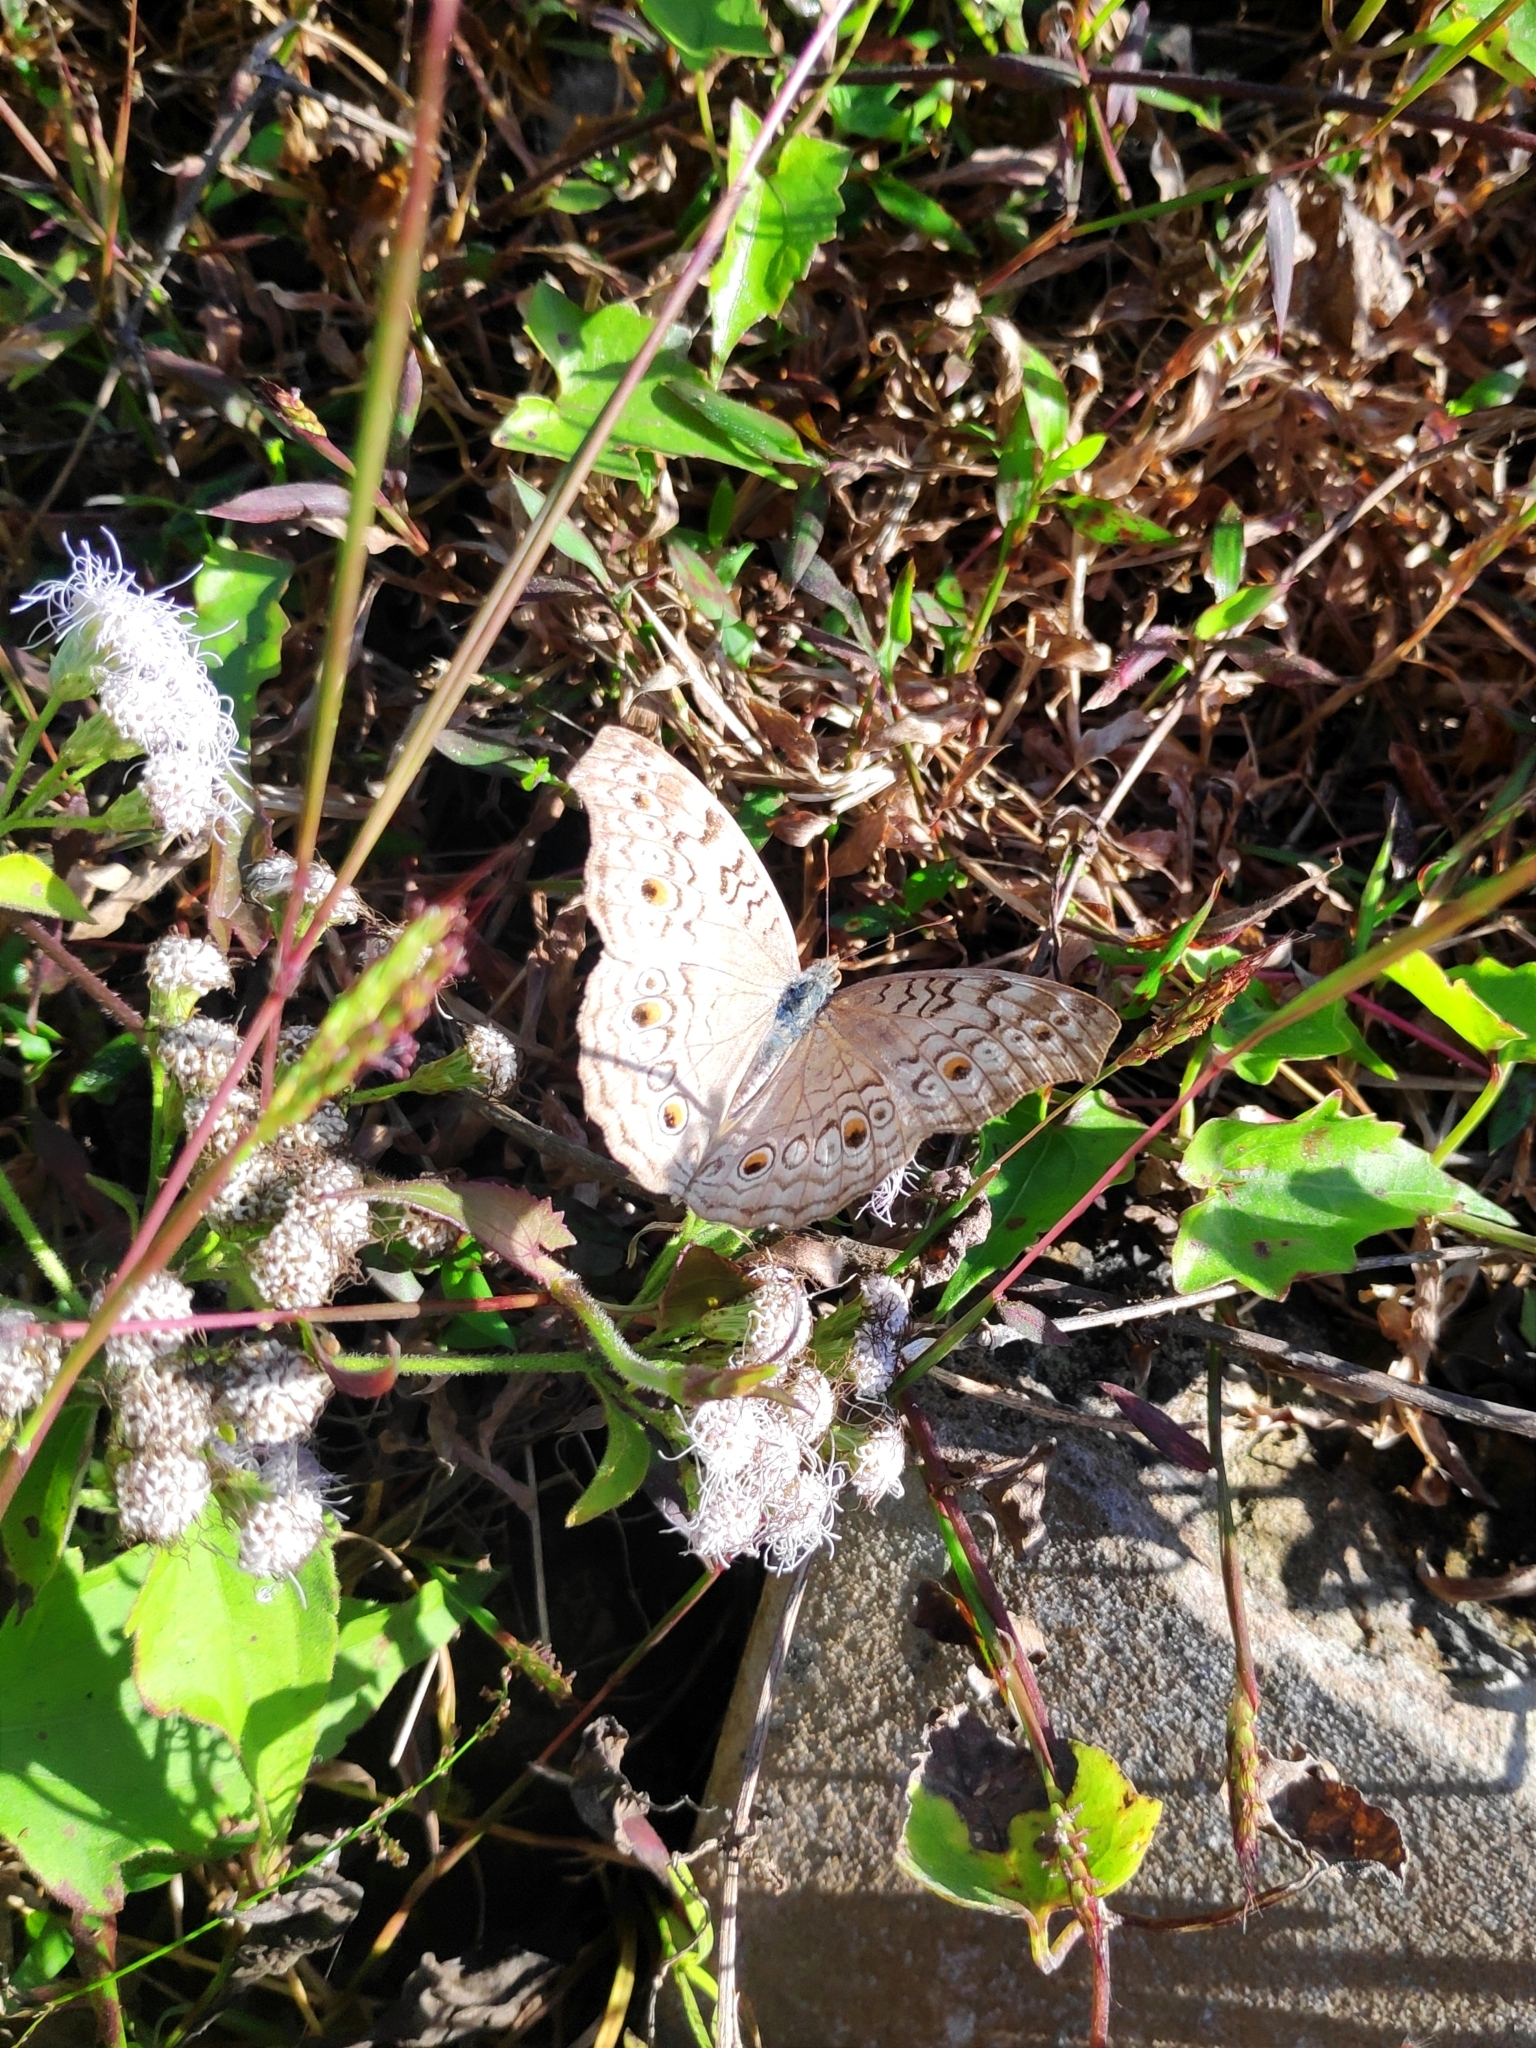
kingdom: Animalia
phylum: Arthropoda
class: Insecta
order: Lepidoptera
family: Nymphalidae
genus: Junonia
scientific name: Junonia atlites
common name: Grey pansy
